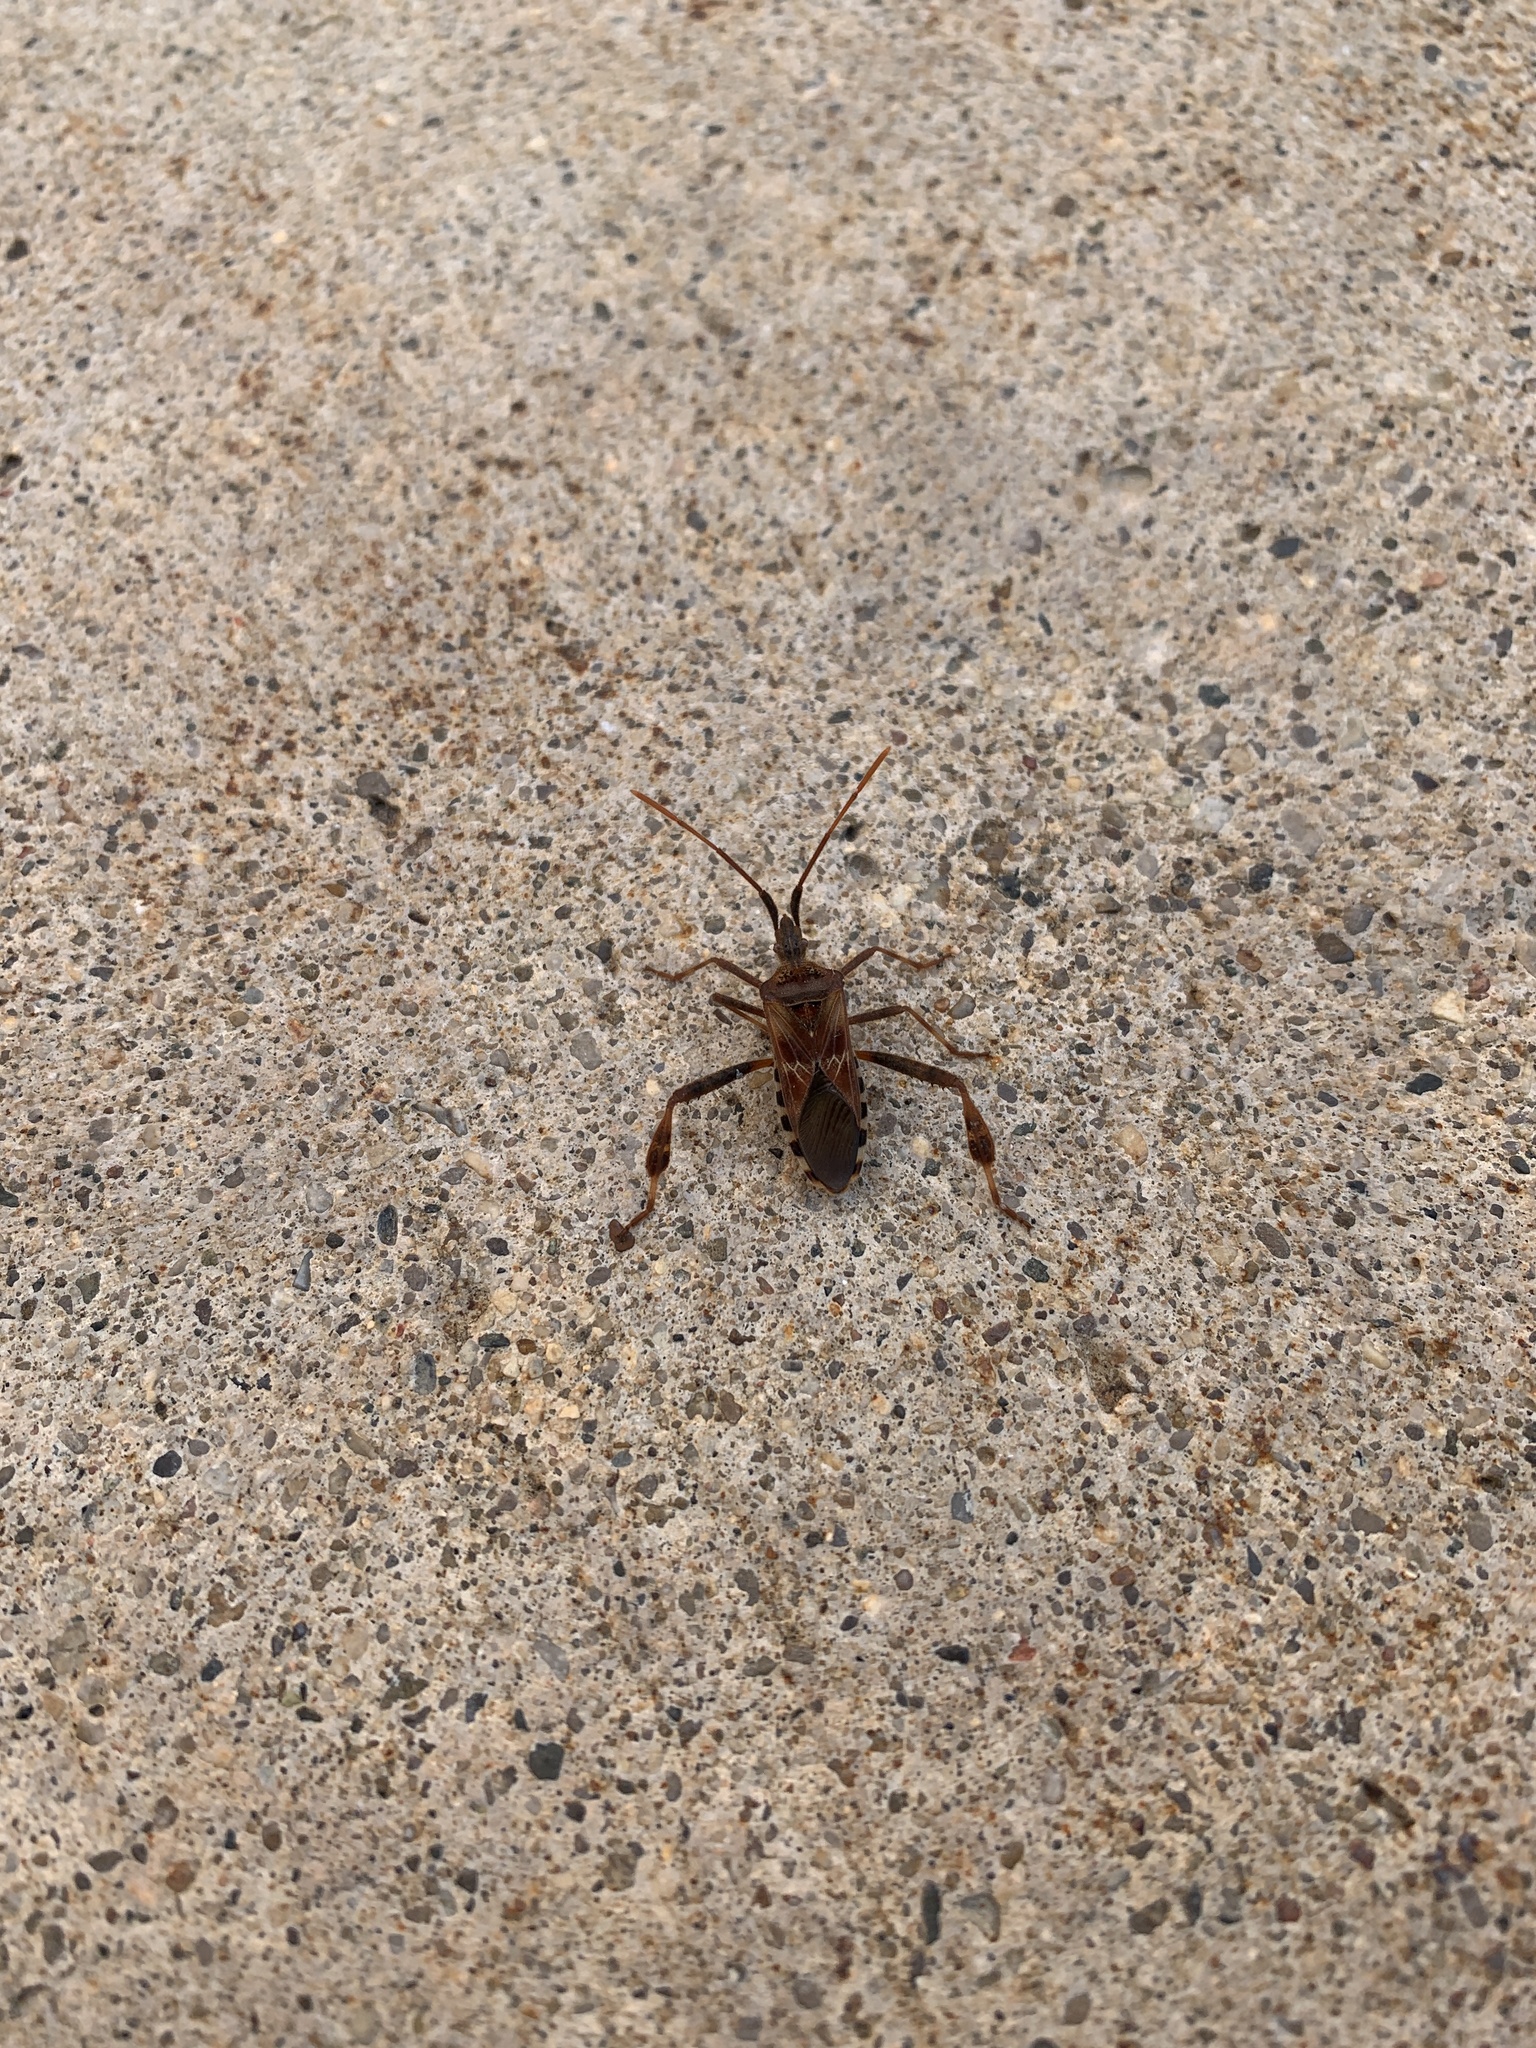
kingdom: Animalia
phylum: Arthropoda
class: Insecta
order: Hemiptera
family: Coreidae
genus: Leptoglossus
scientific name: Leptoglossus occidentalis
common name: Western conifer-seed bug
